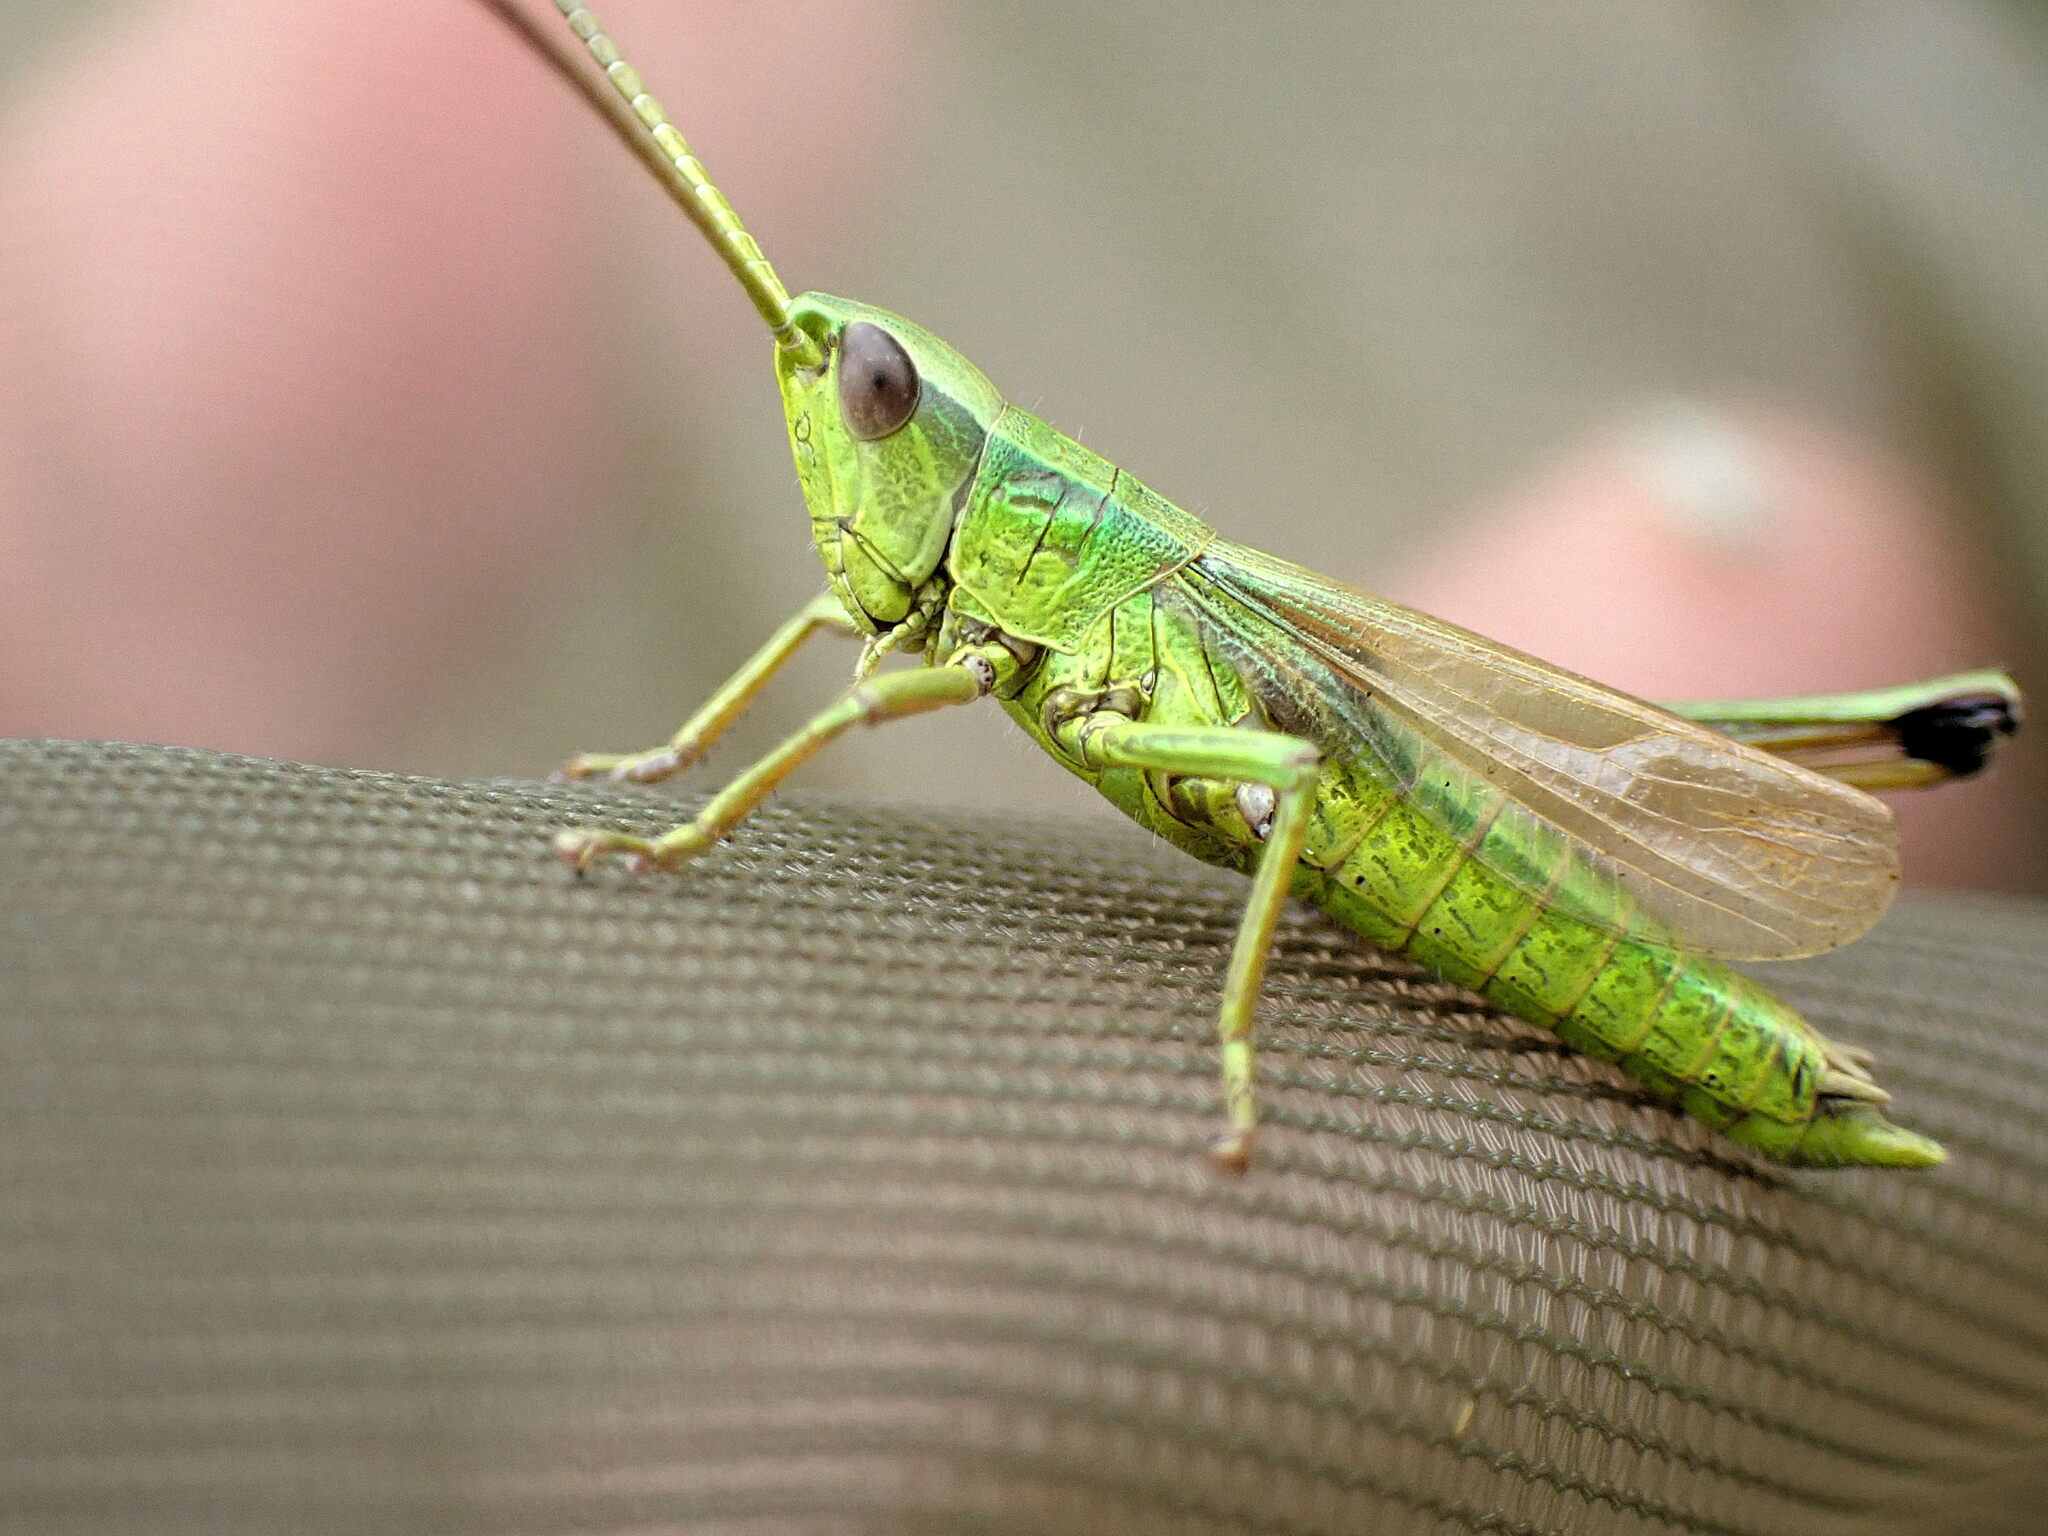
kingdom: Animalia
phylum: Arthropoda
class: Insecta
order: Orthoptera
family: Acrididae
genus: Chrysochraon
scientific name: Chrysochraon dispar
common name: Large gold grasshopper
